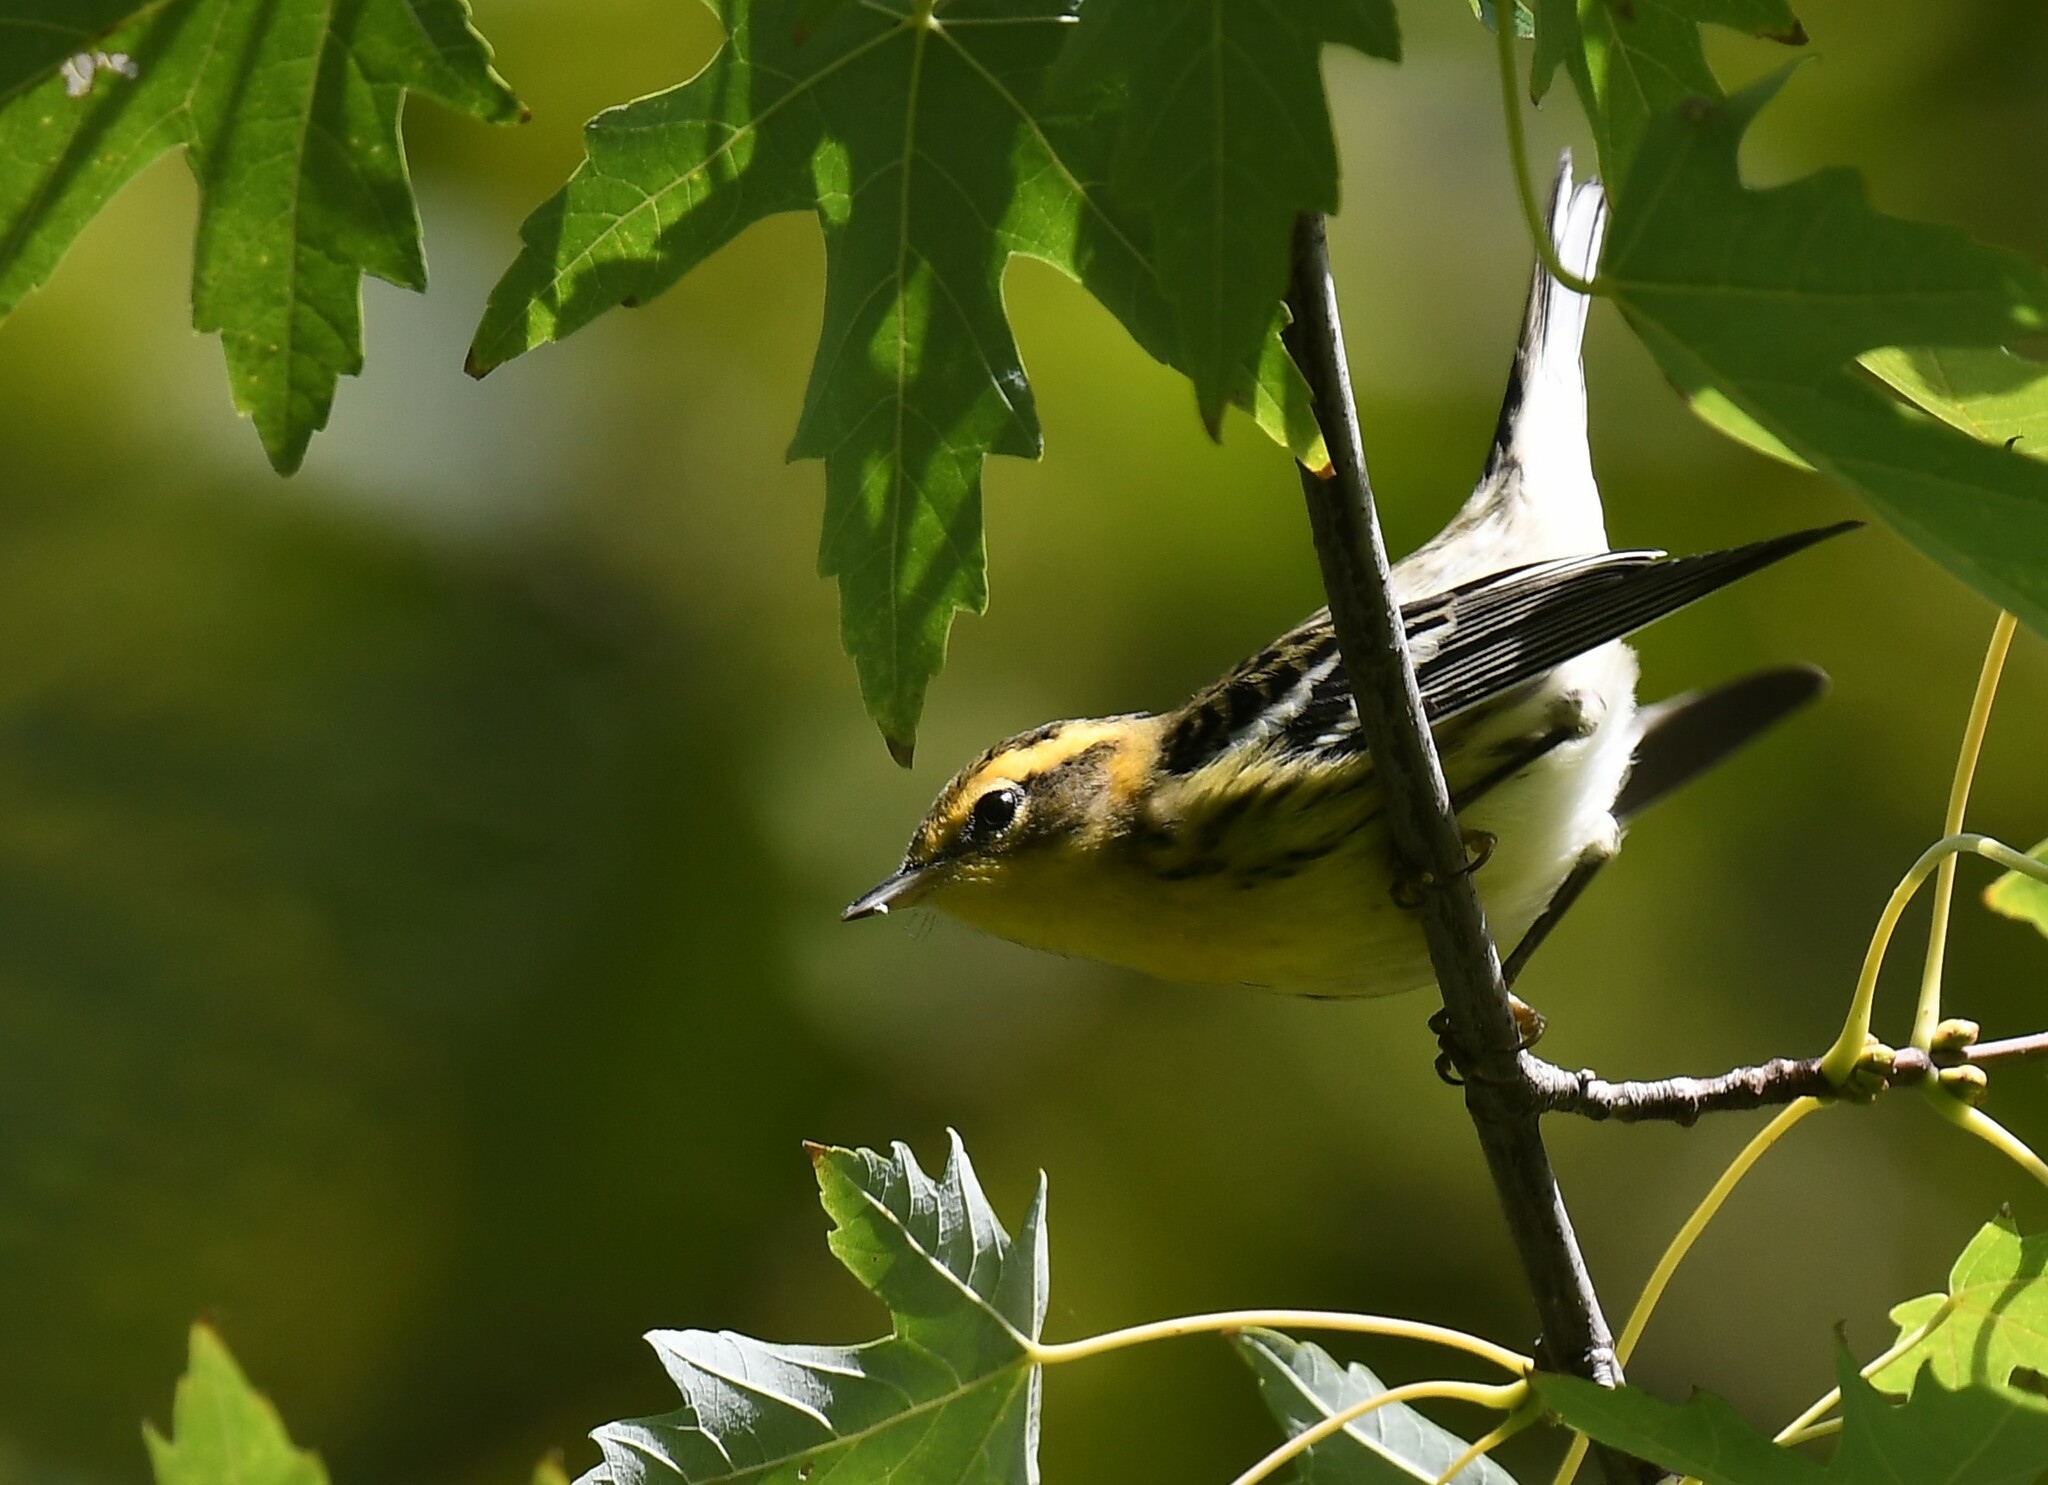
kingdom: Animalia
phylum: Chordata
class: Aves
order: Passeriformes
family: Parulidae
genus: Setophaga
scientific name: Setophaga fusca
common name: Blackburnian warbler
